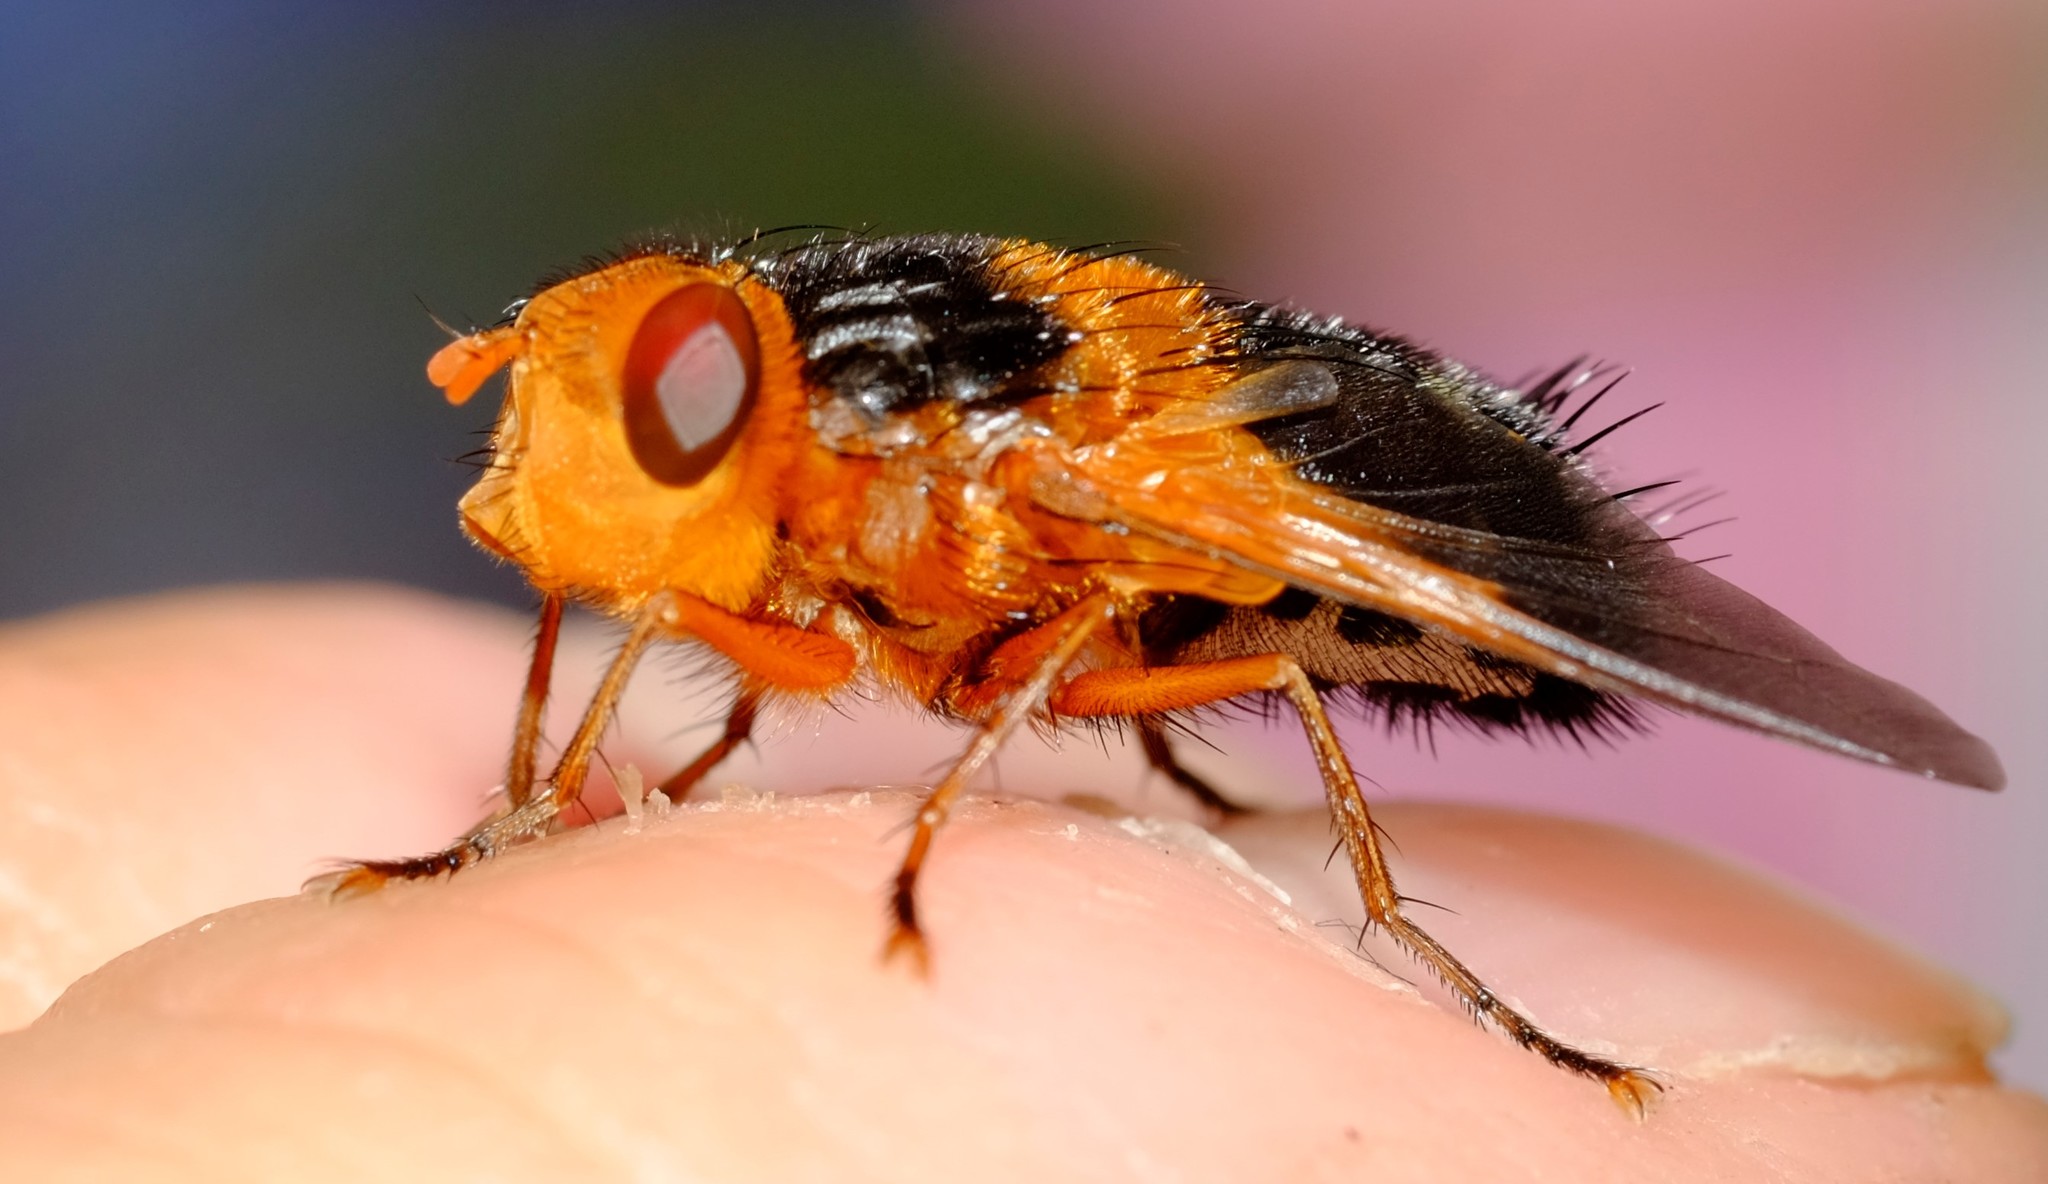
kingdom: Animalia
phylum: Arthropoda
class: Insecta
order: Diptera
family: Tachinidae
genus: Microtropesa
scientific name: Microtropesa sinuata
